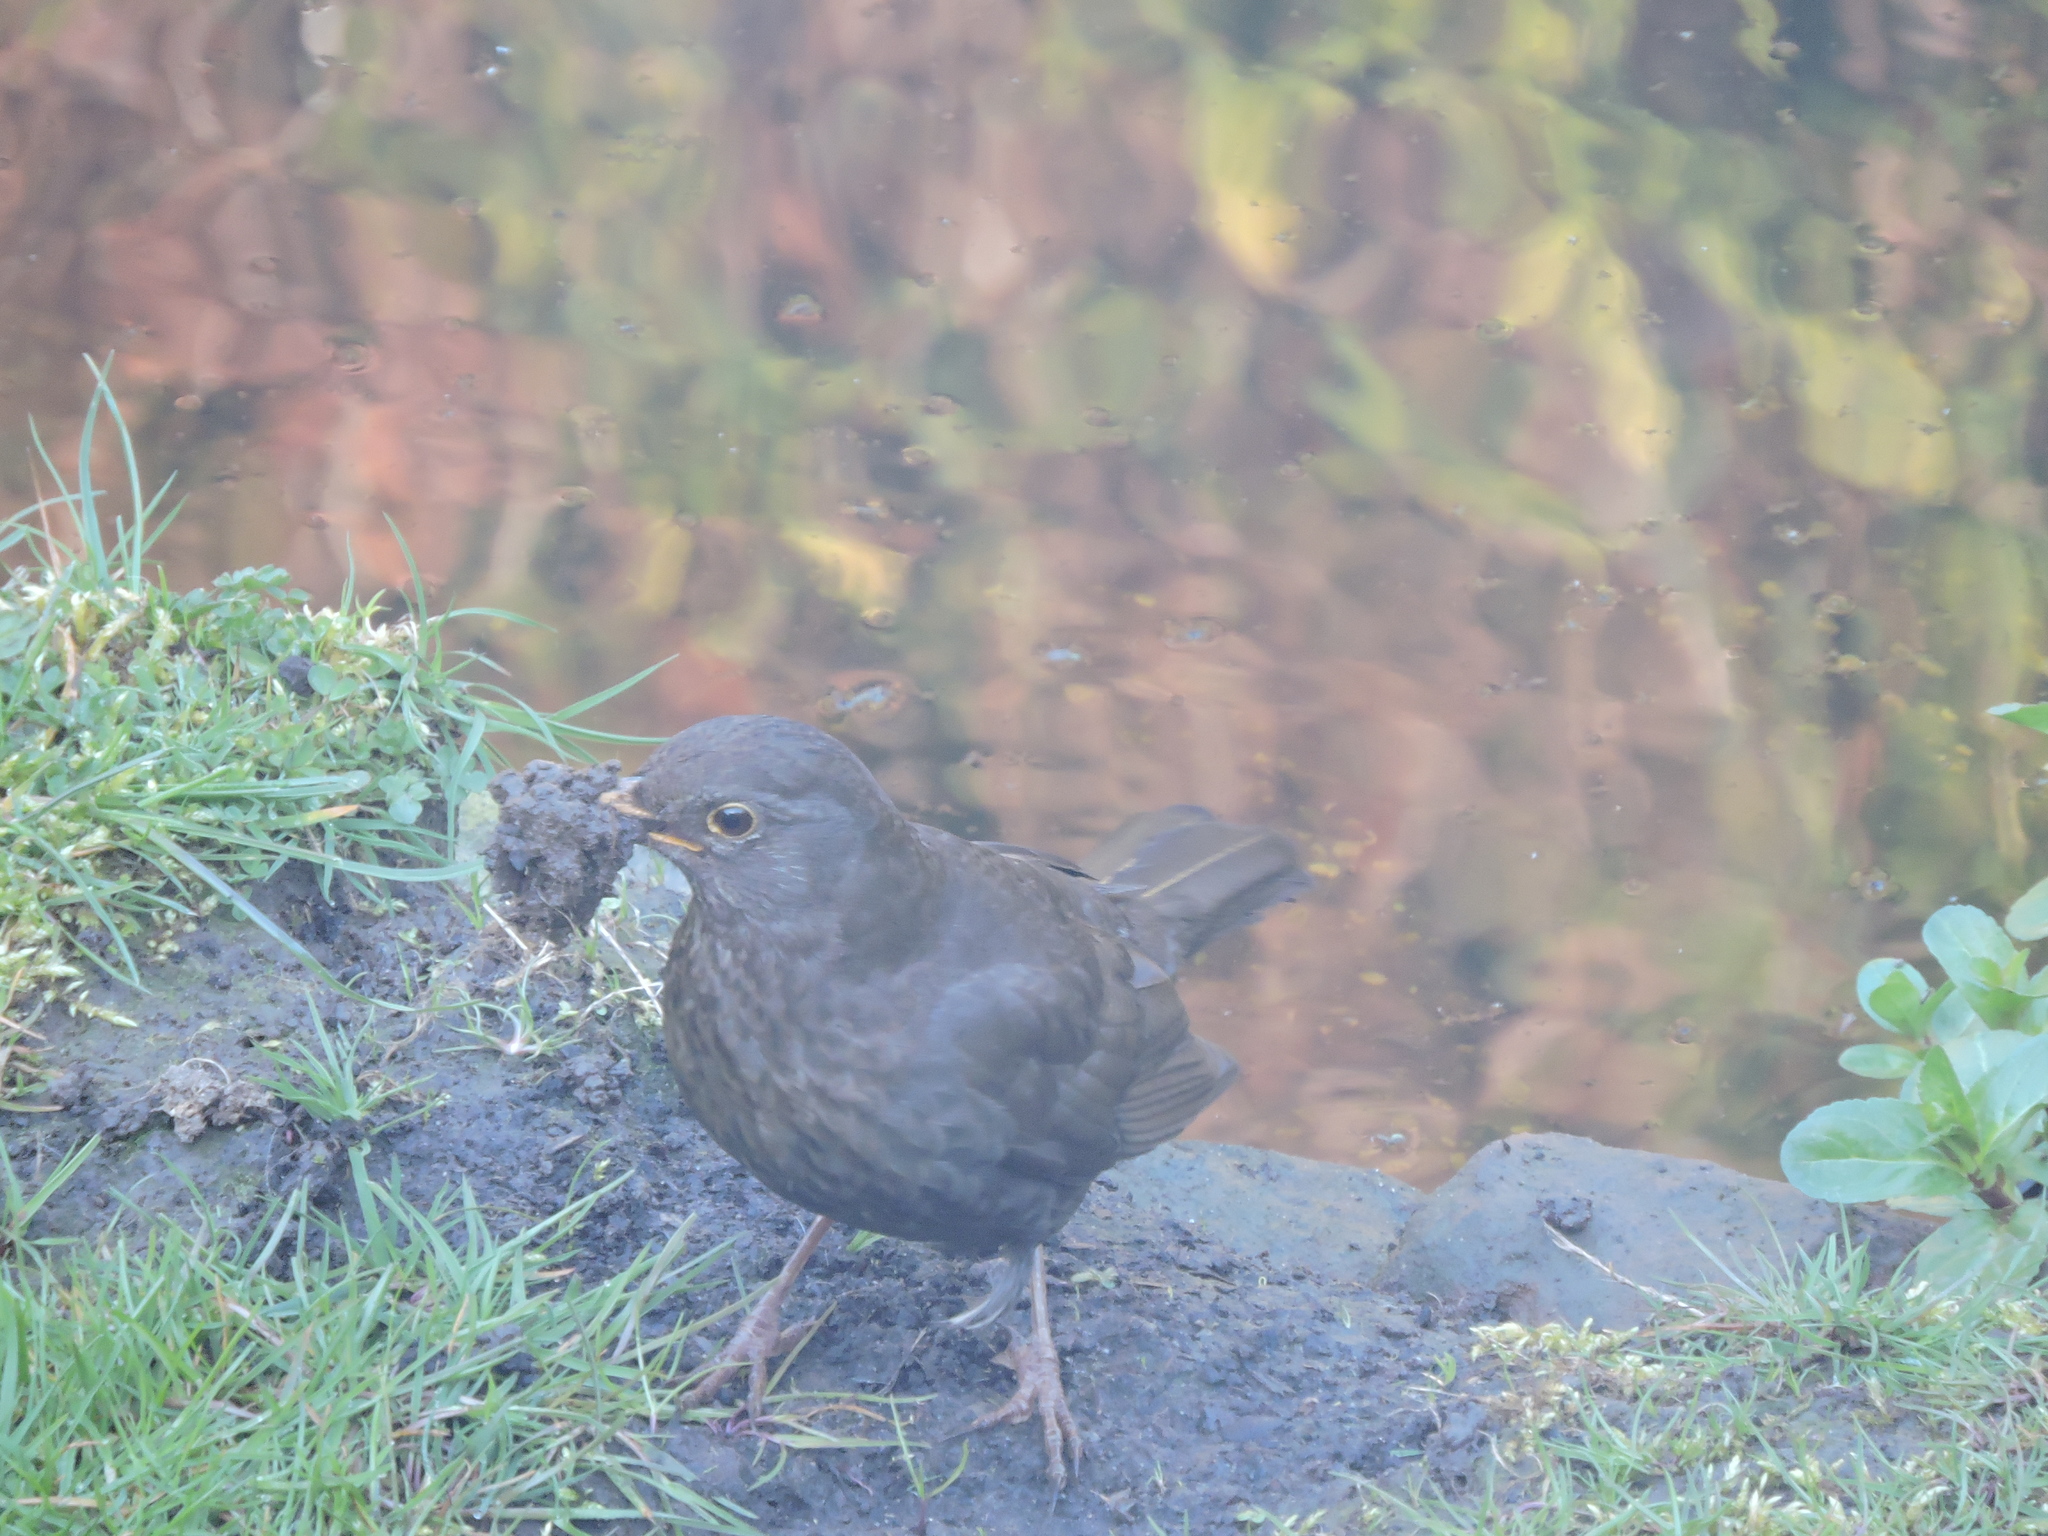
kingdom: Animalia
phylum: Chordata
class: Aves
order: Passeriformes
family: Turdidae
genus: Turdus
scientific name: Turdus merula
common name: Common blackbird
